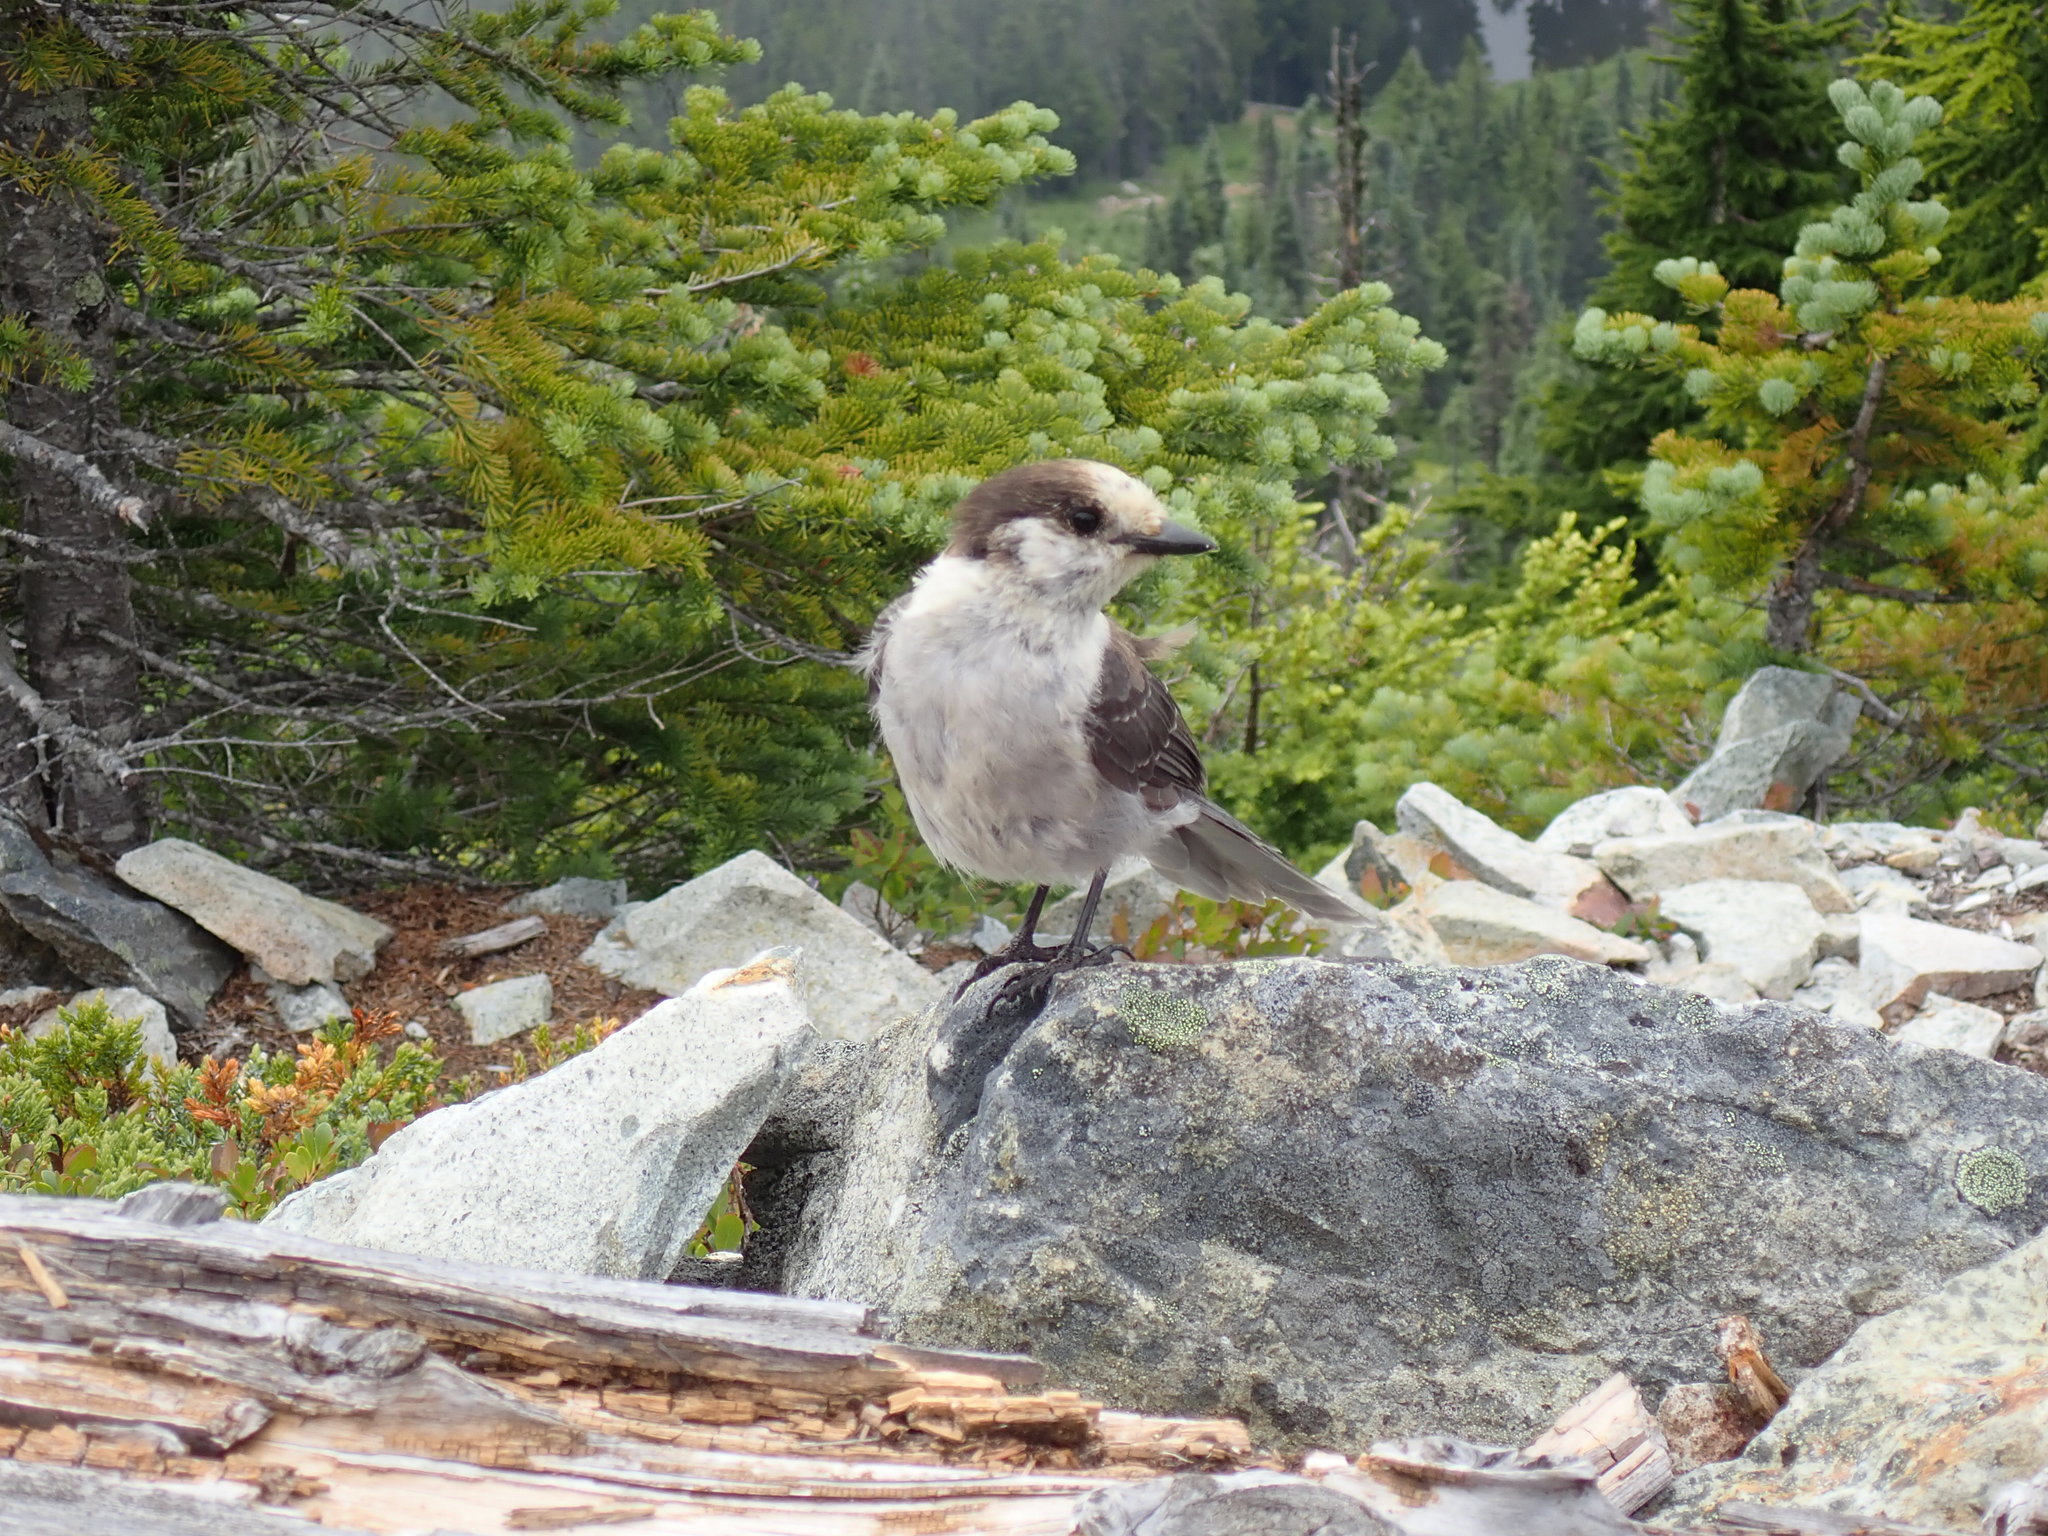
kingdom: Animalia
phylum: Chordata
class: Aves
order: Passeriformes
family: Corvidae
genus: Perisoreus
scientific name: Perisoreus canadensis
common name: Gray jay
